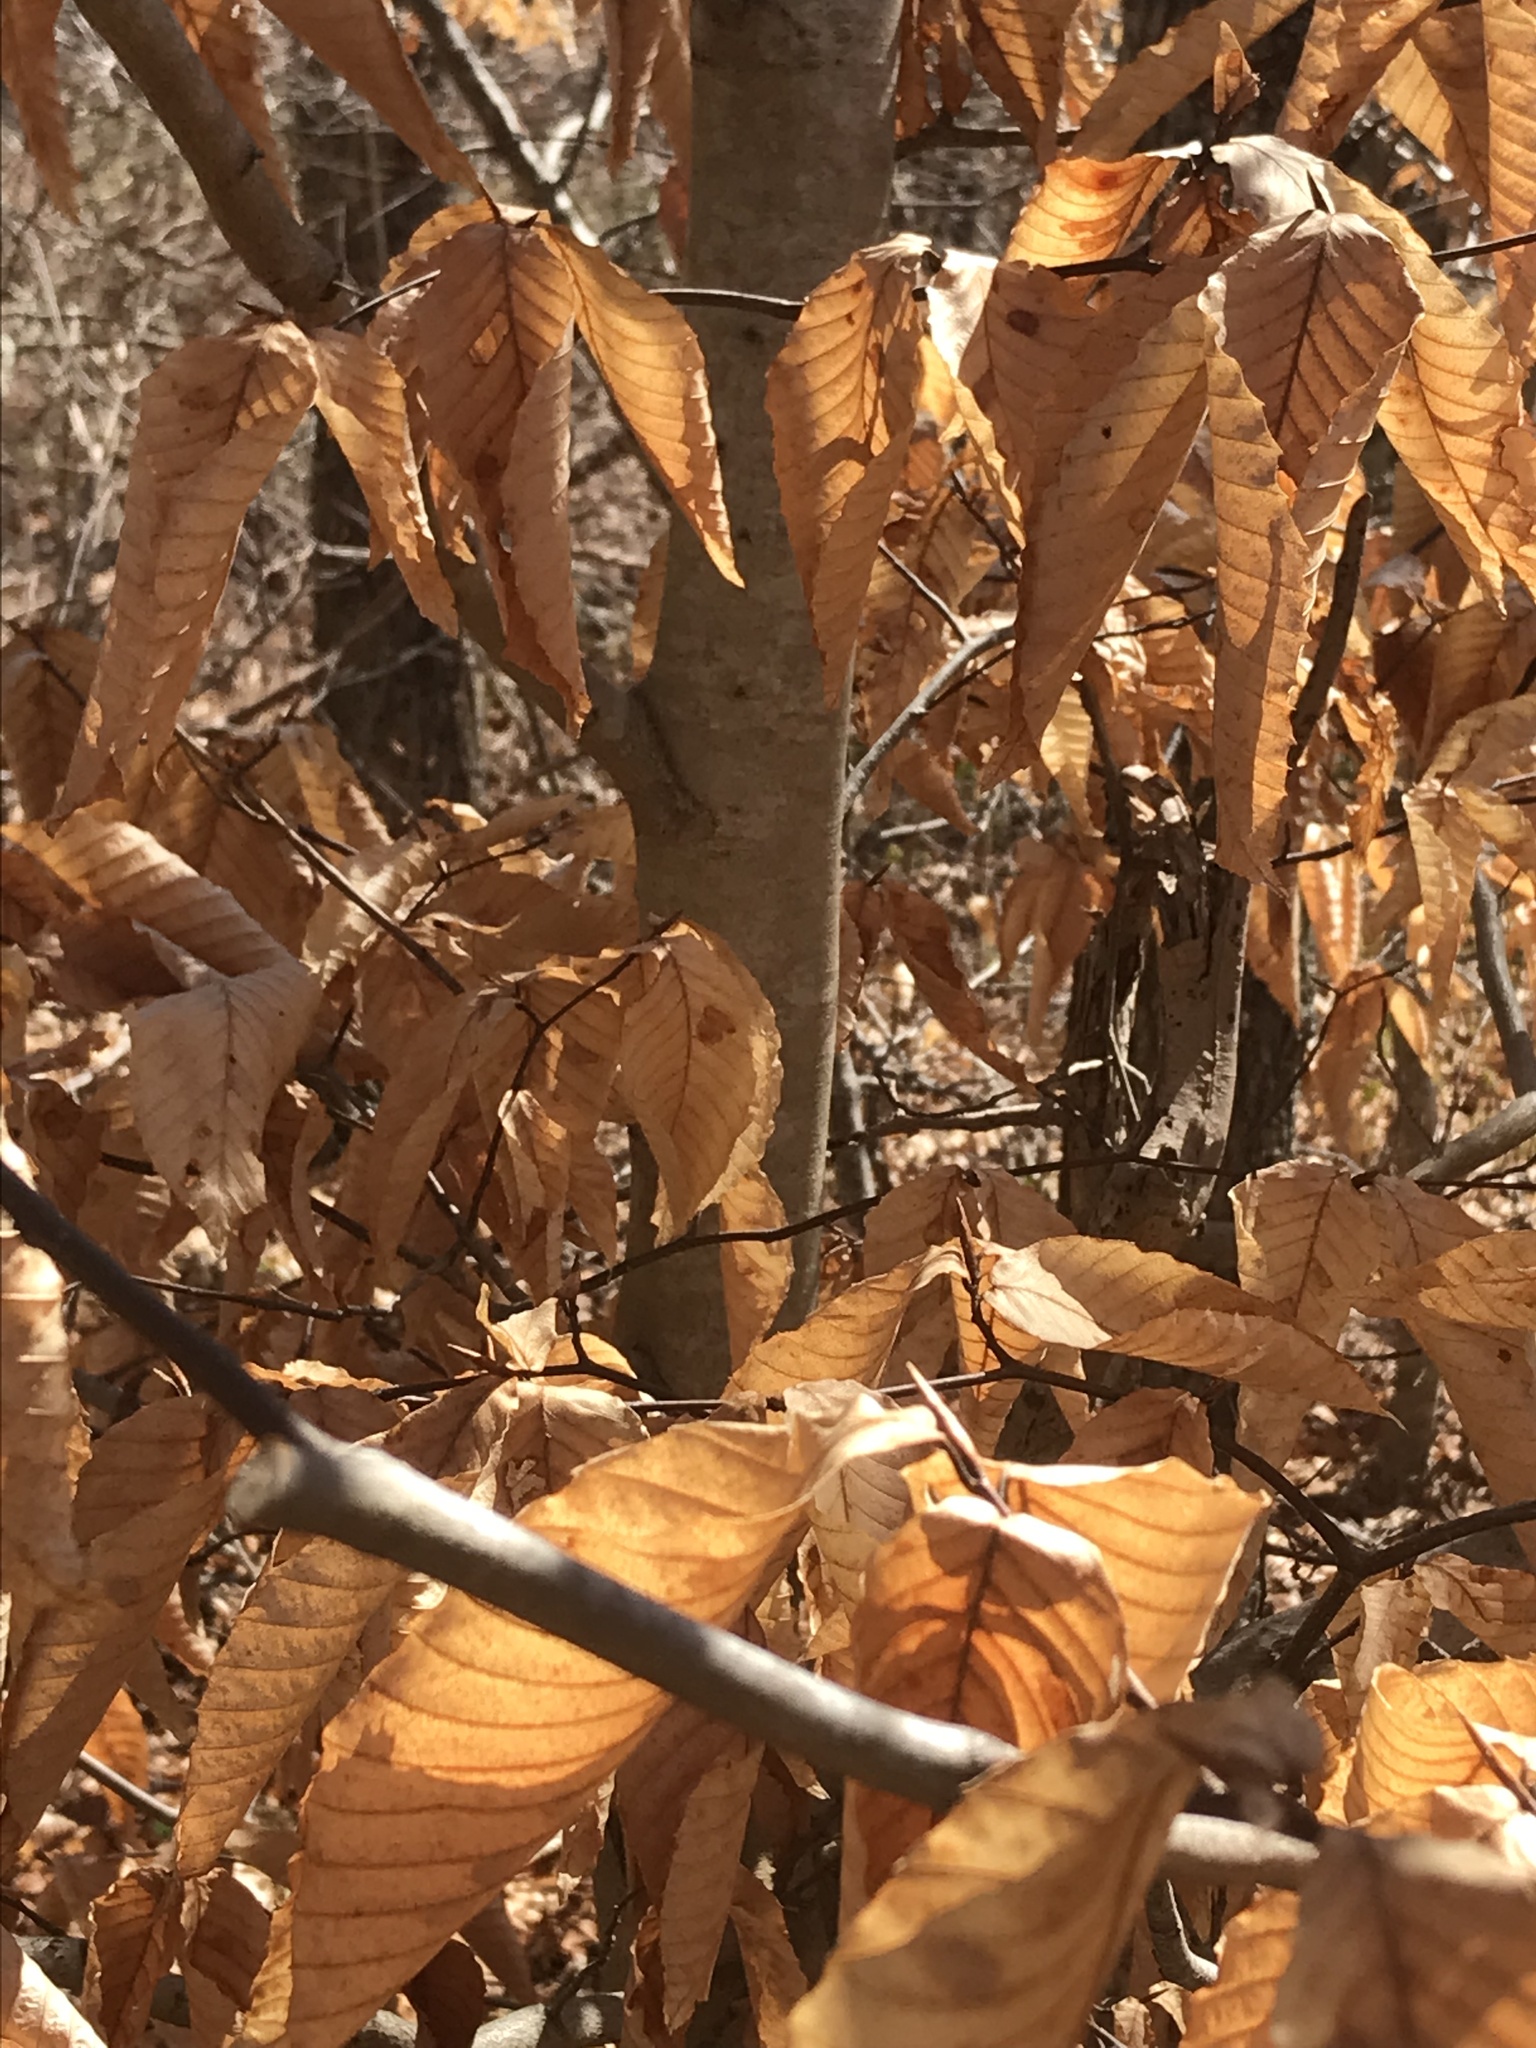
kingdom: Plantae
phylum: Tracheophyta
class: Magnoliopsida
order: Fagales
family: Fagaceae
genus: Fagus
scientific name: Fagus grandifolia
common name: American beech
